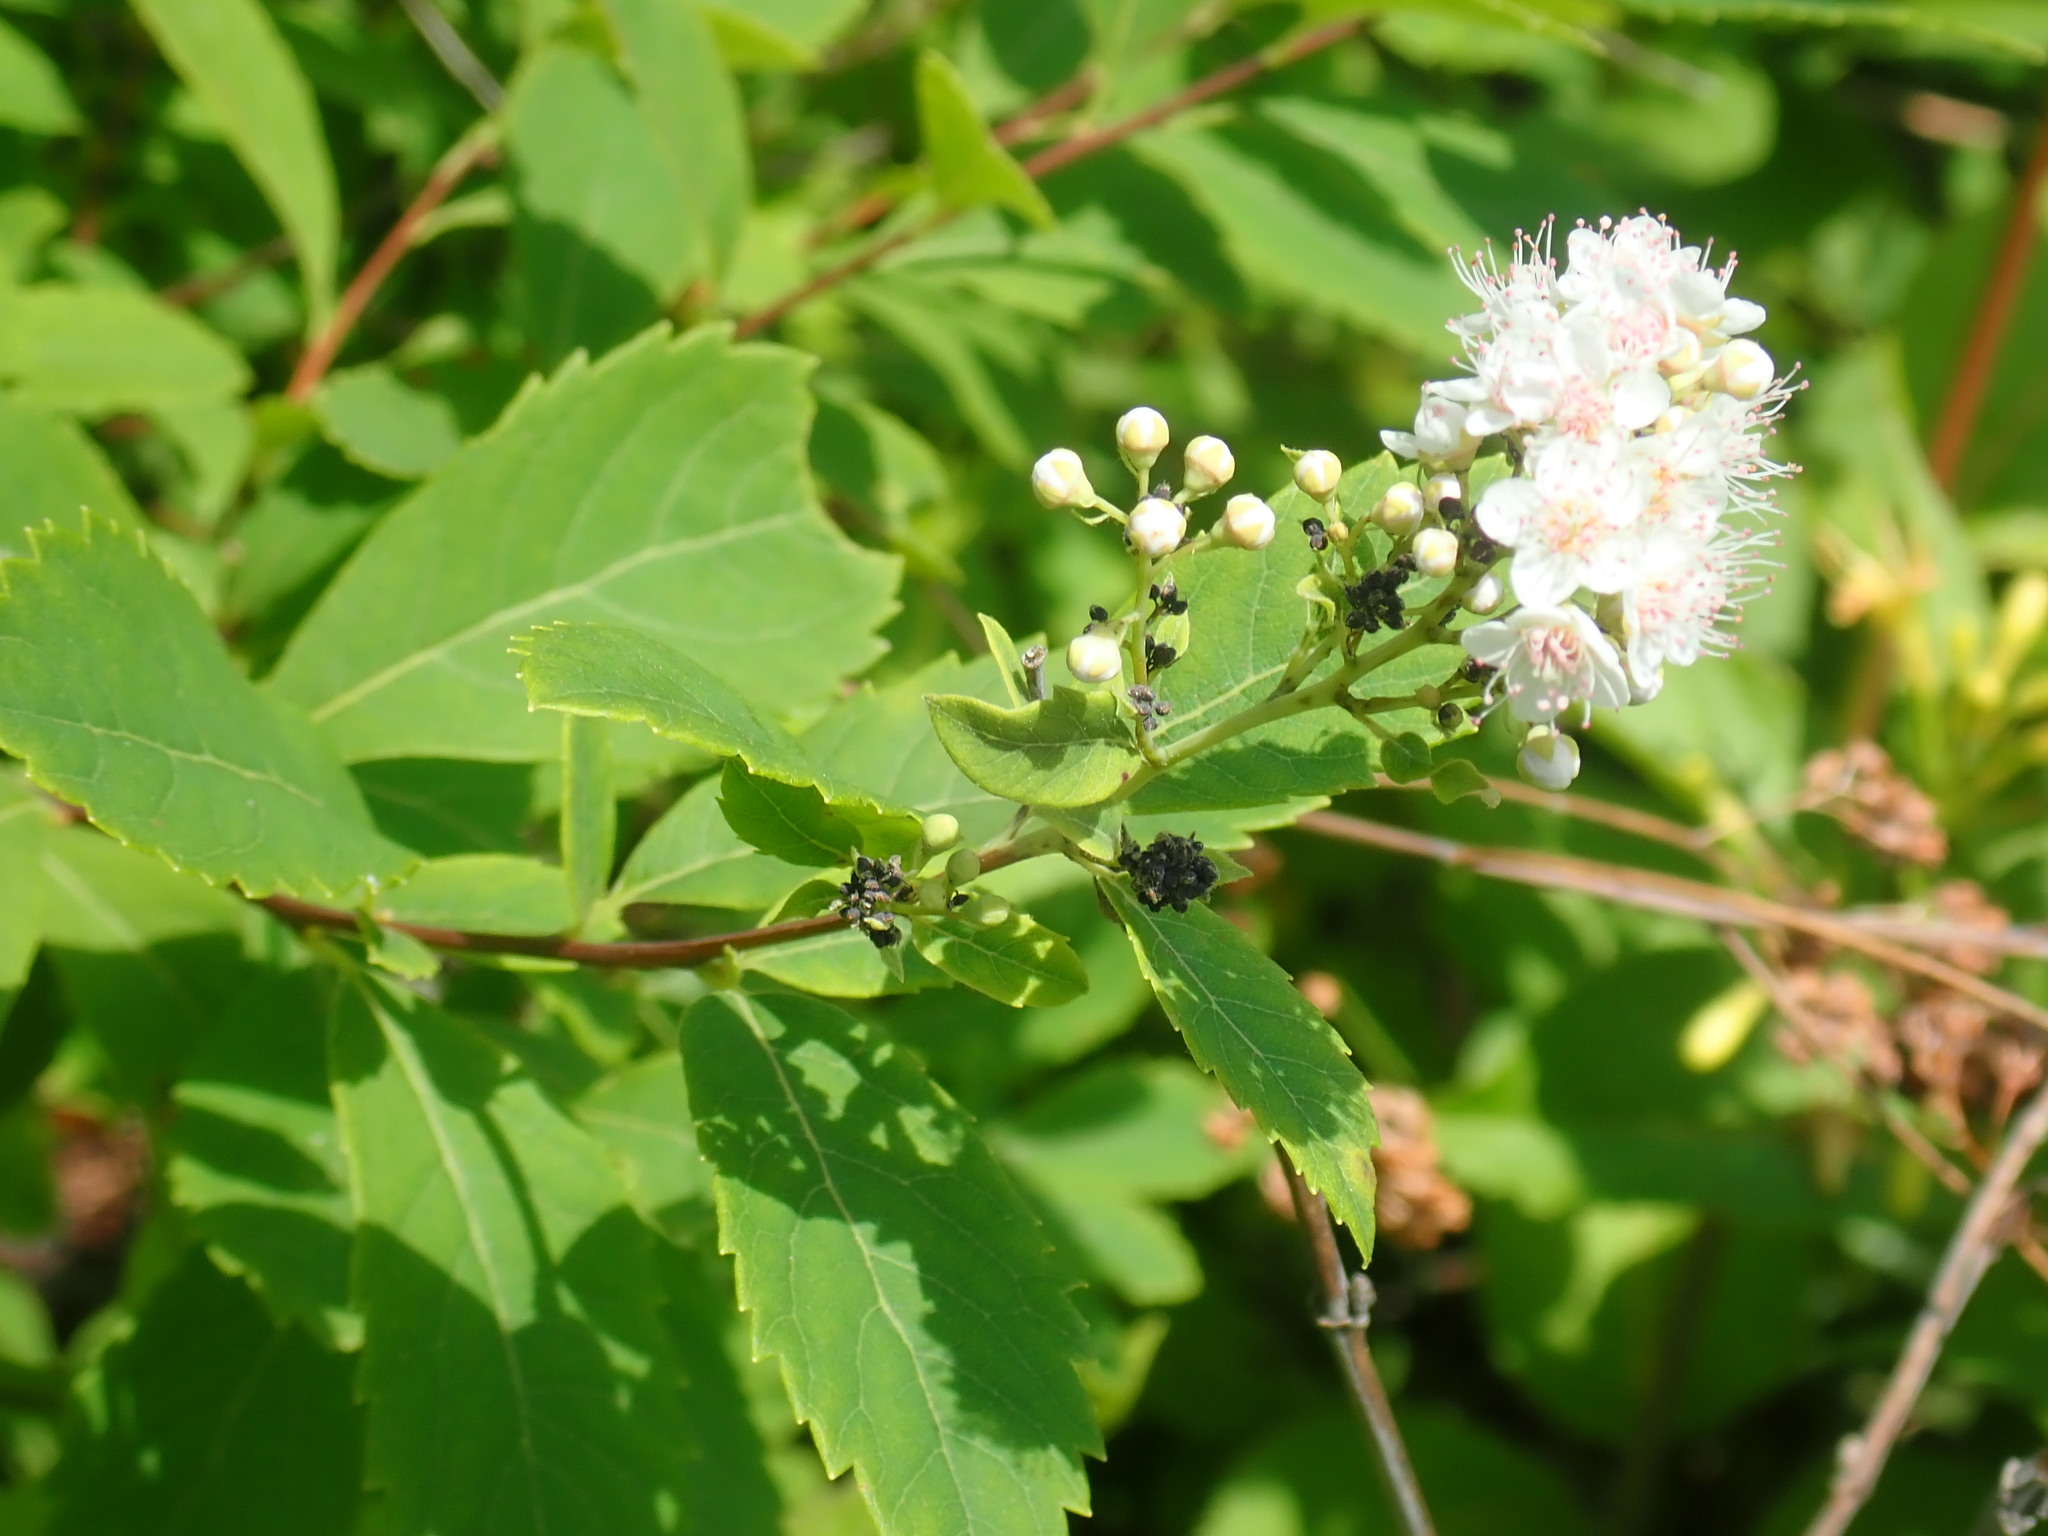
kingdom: Plantae
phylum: Tracheophyta
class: Magnoliopsida
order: Rosales
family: Rosaceae
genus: Spiraea
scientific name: Spiraea alba
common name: Pale bridewort
